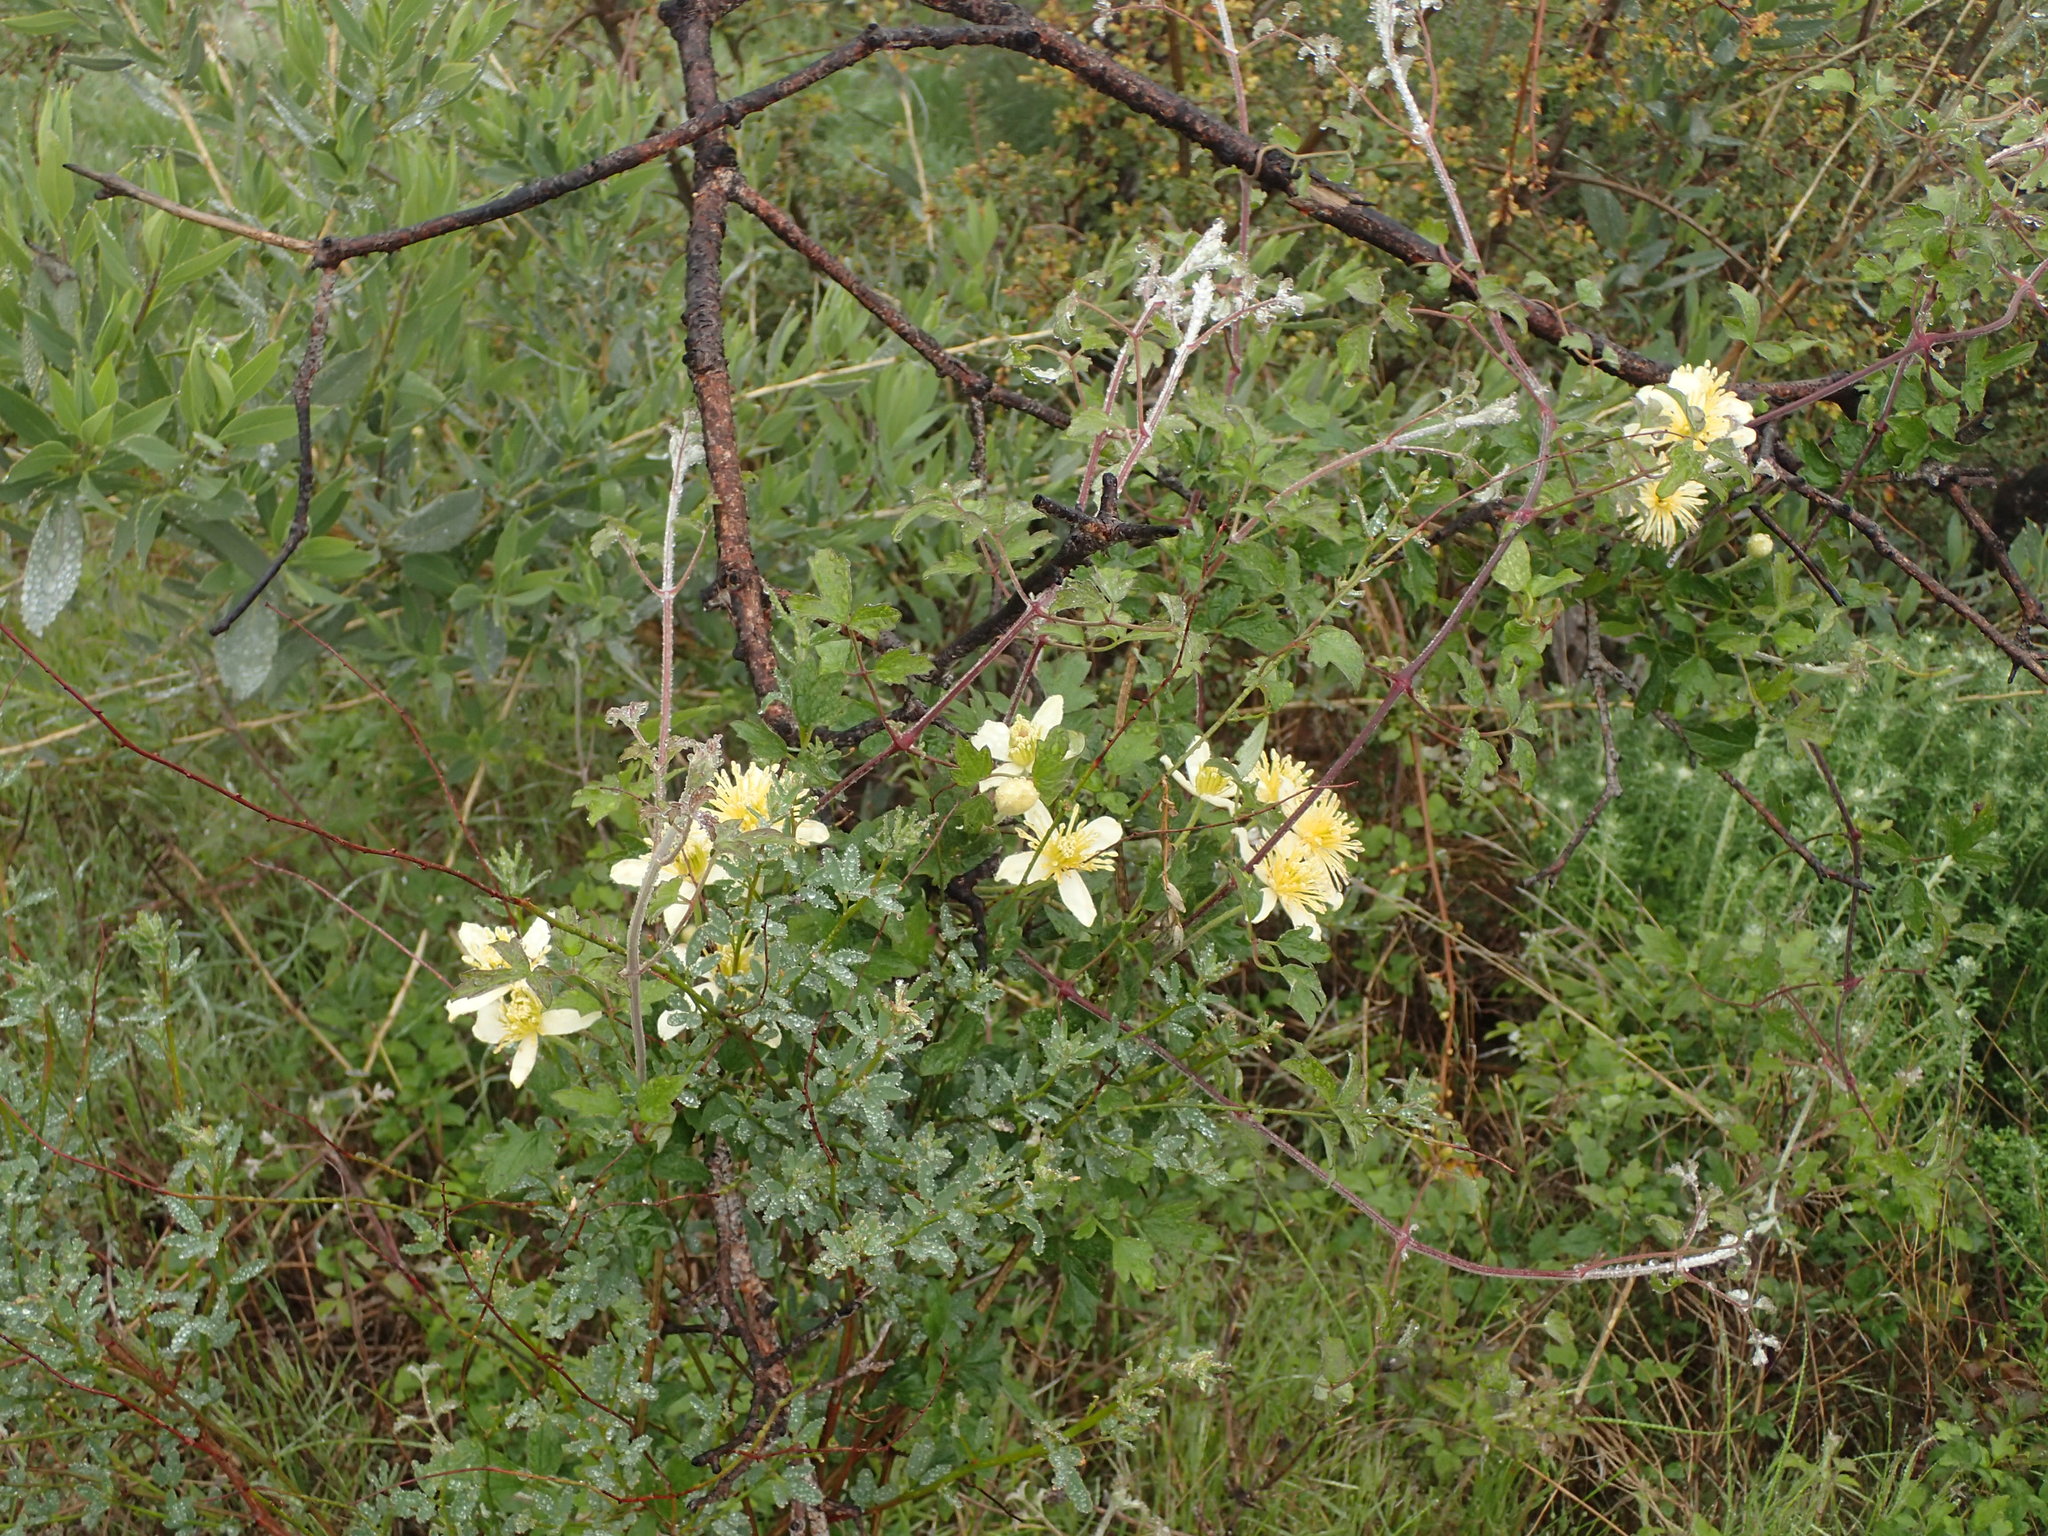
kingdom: Plantae
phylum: Tracheophyta
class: Magnoliopsida
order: Ranunculales
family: Ranunculaceae
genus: Clematis
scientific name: Clematis lasiantha
